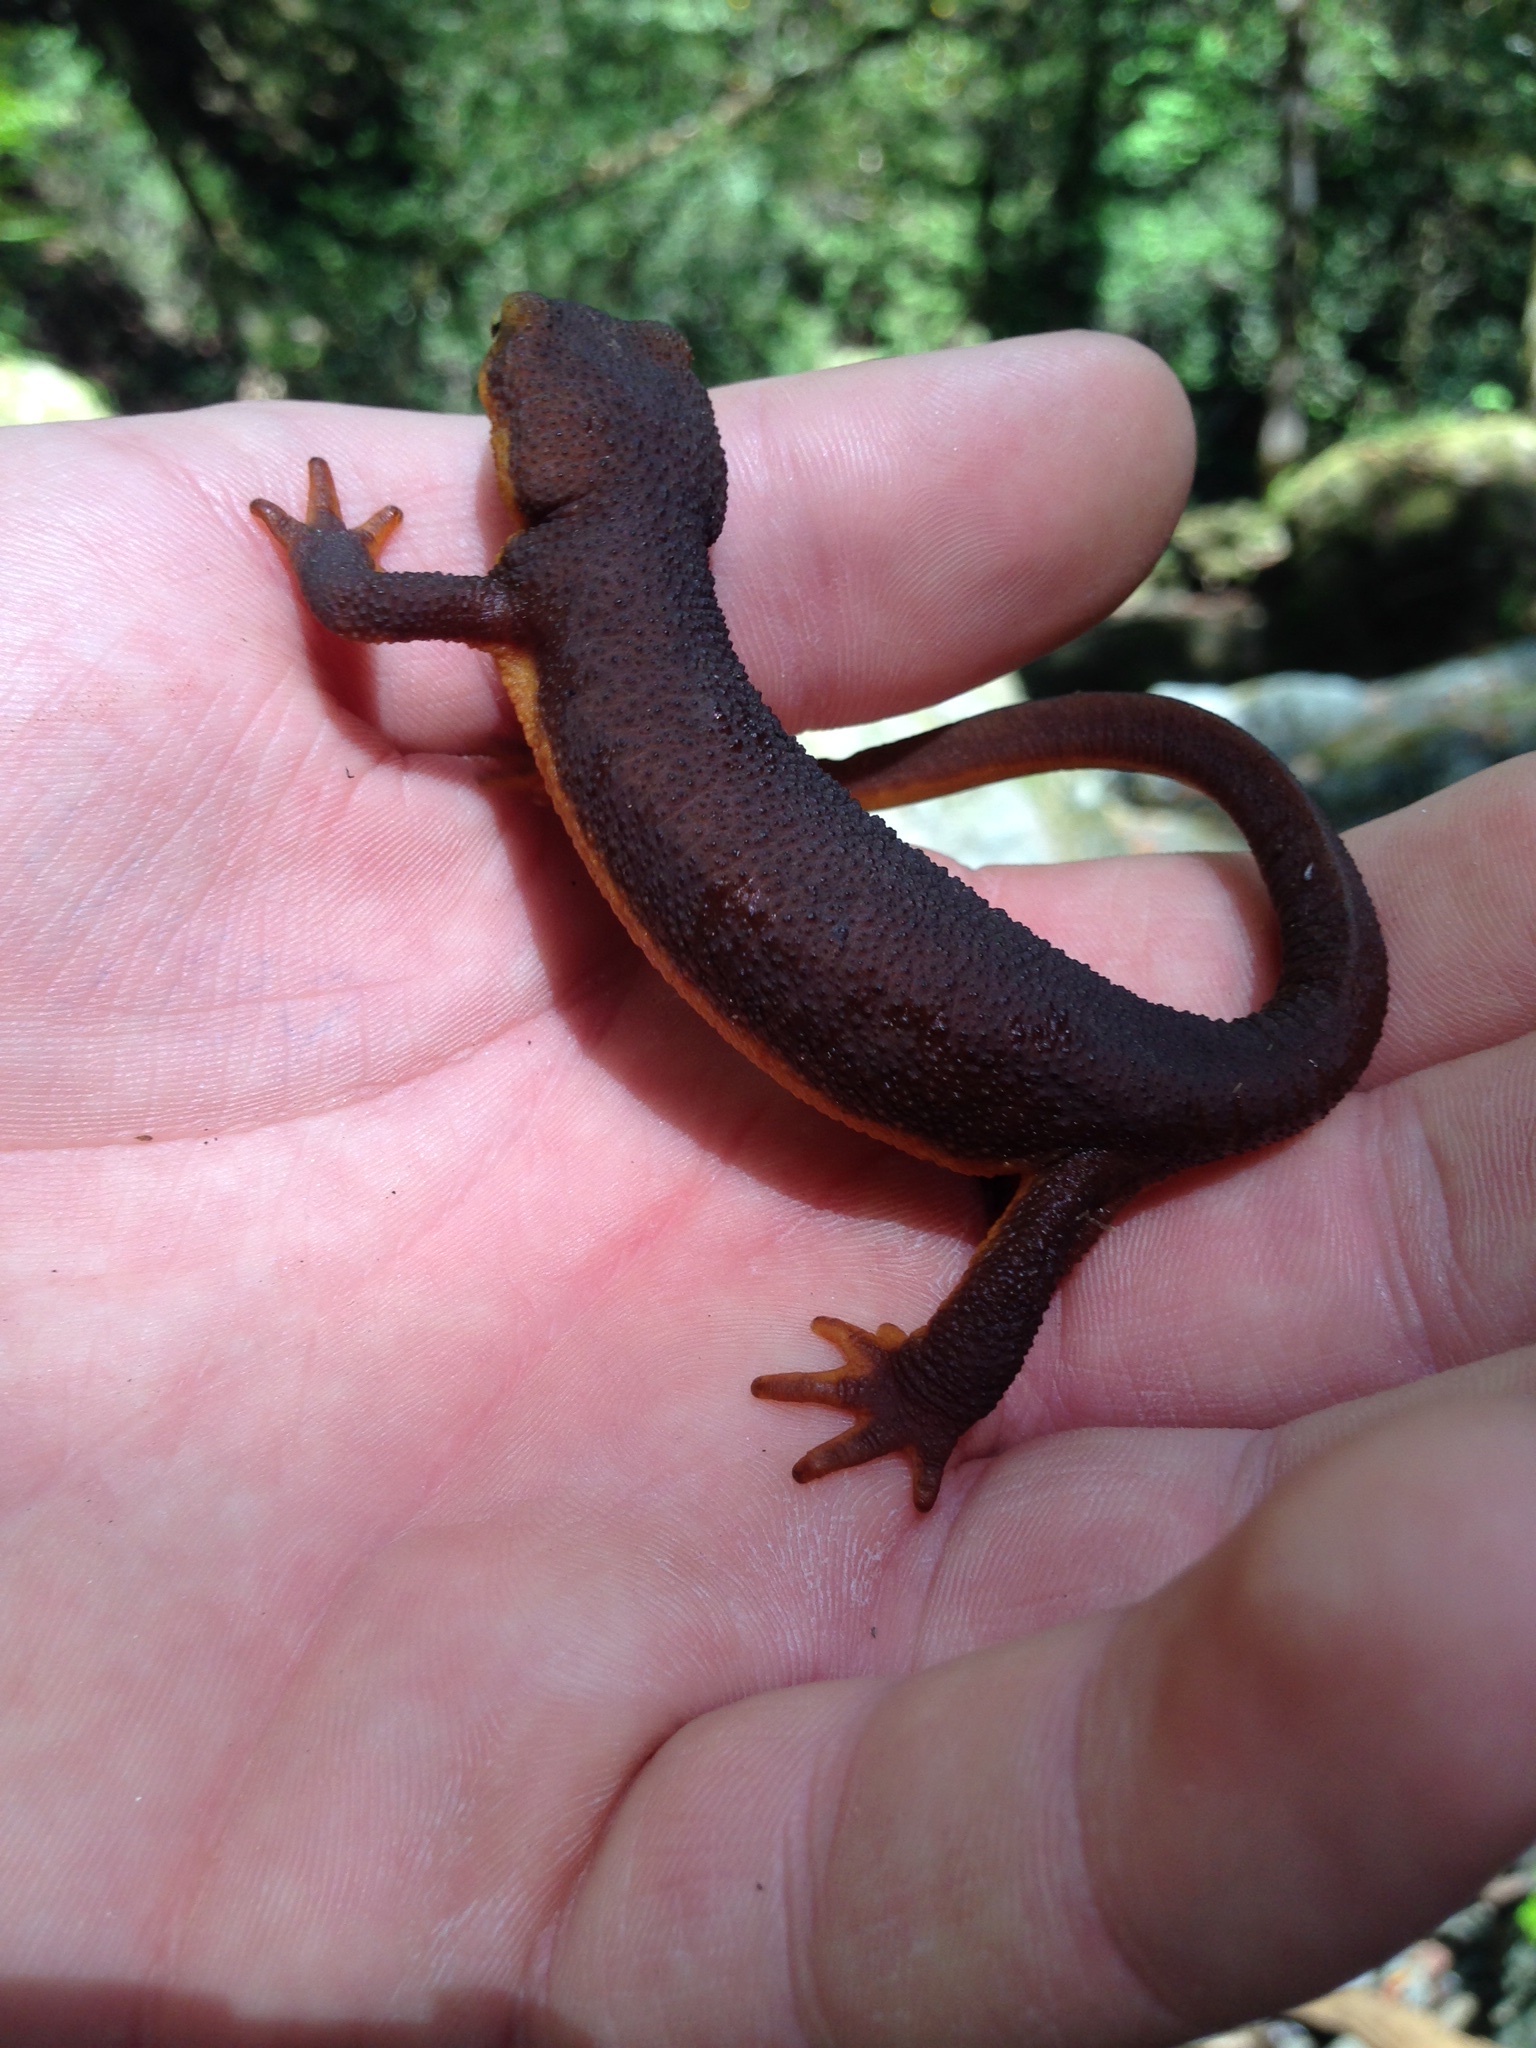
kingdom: Animalia
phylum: Chordata
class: Amphibia
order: Caudata
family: Salamandridae
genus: Taricha
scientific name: Taricha torosa
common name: California newt
